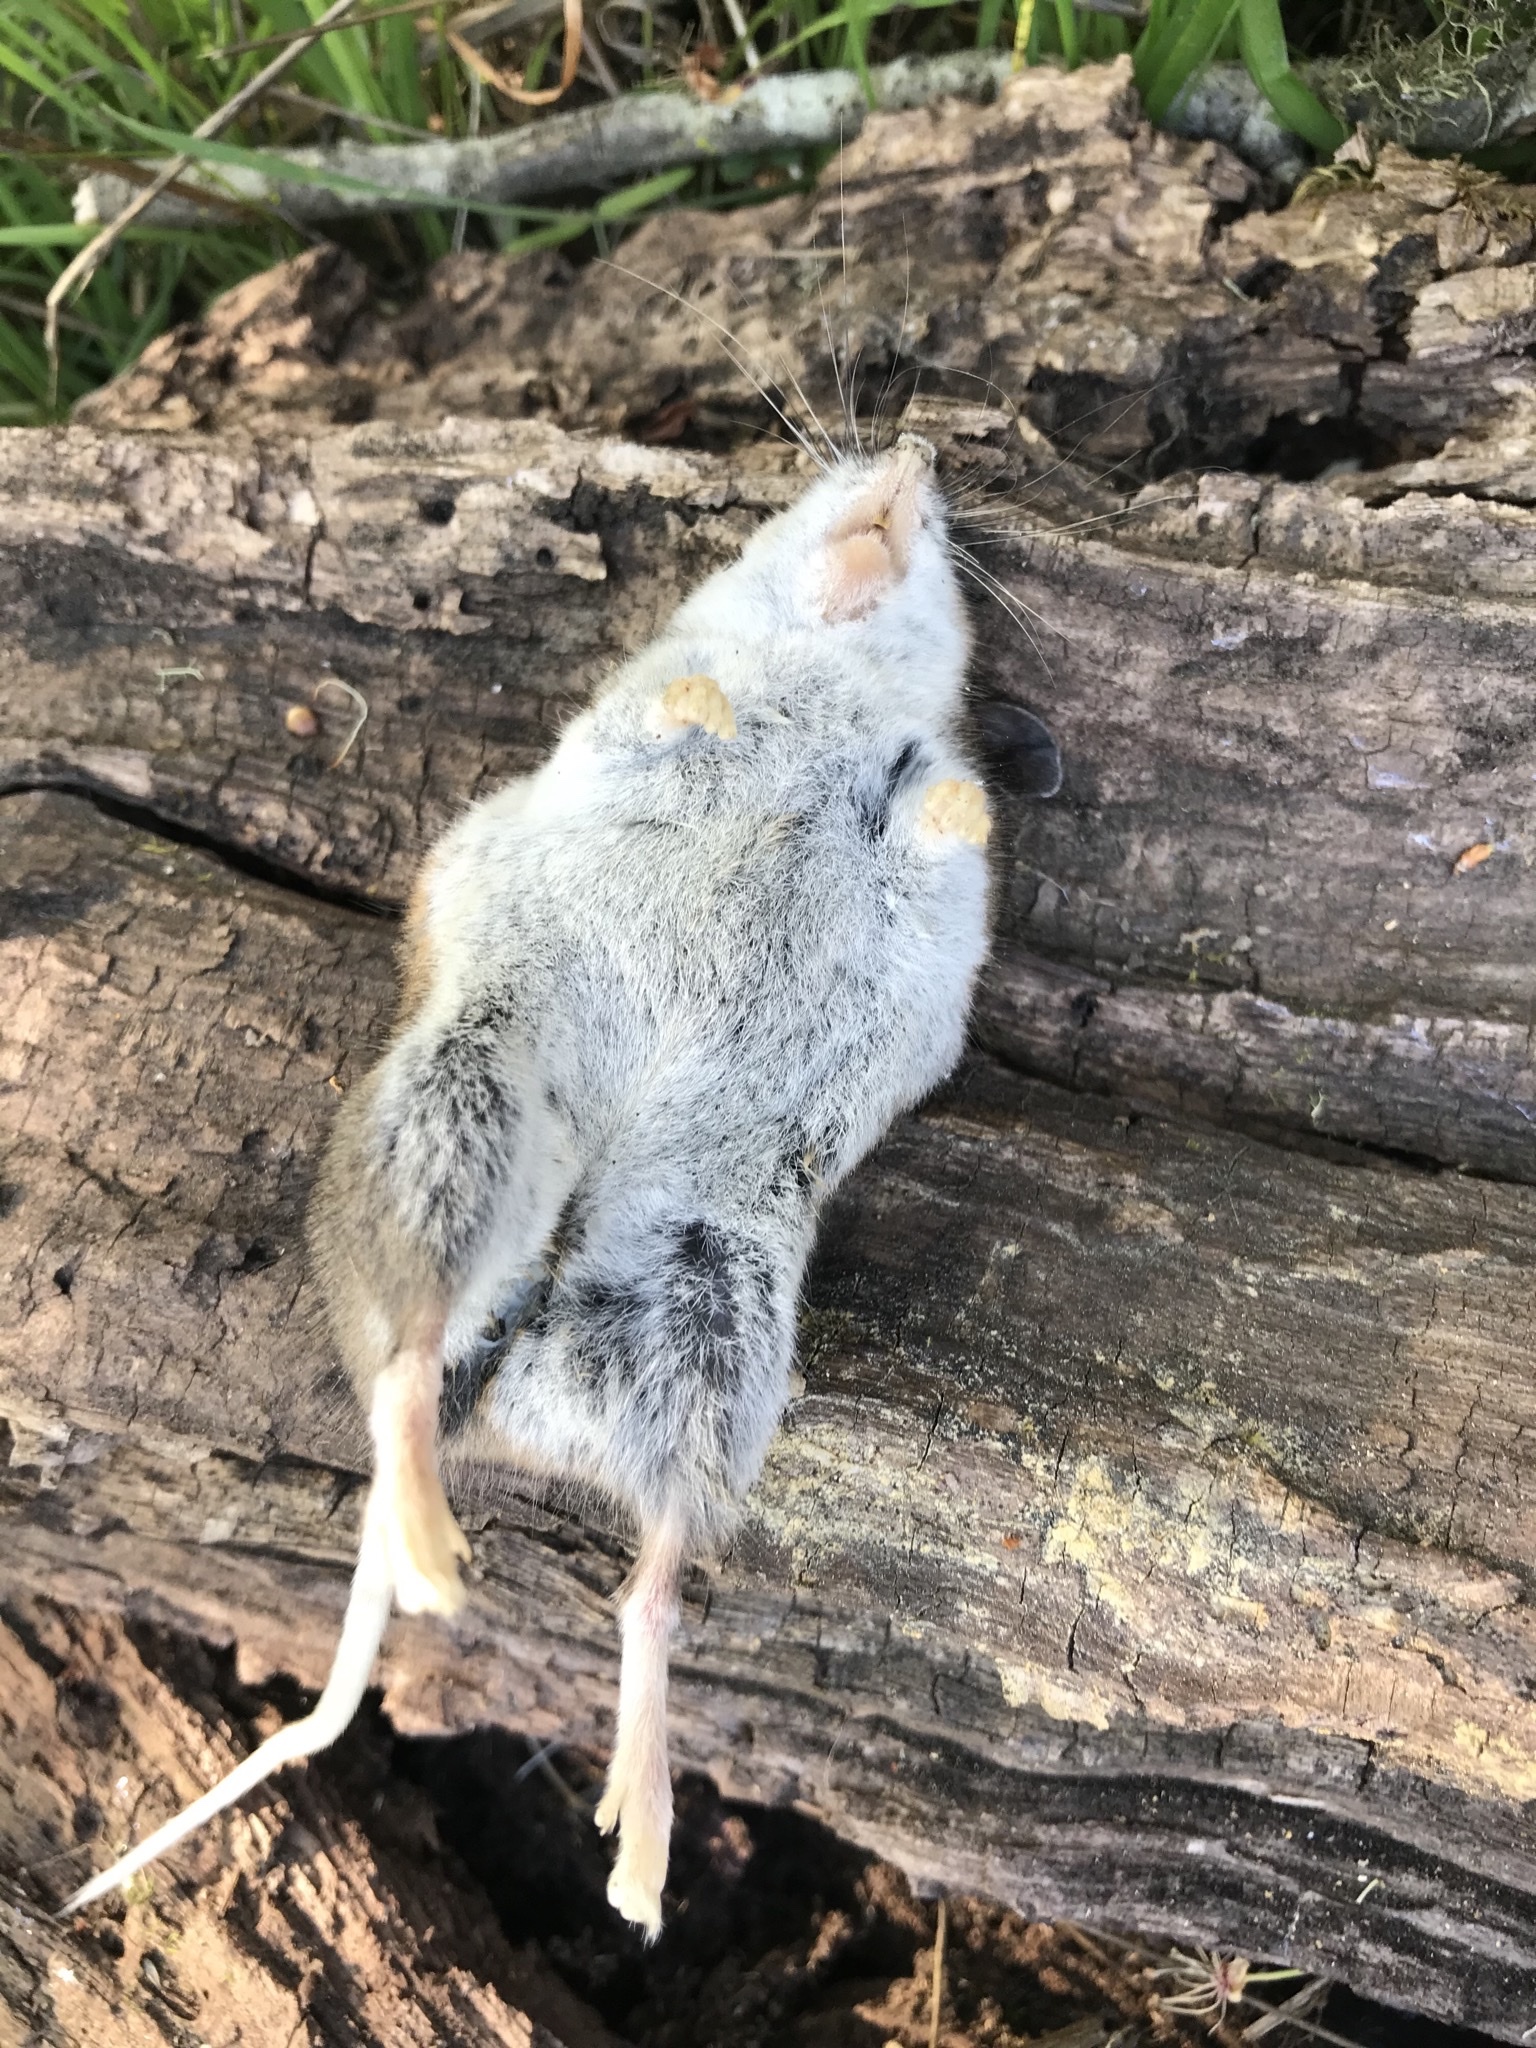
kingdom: Animalia
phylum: Chordata
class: Mammalia
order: Rodentia
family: Cricetidae
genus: Peromyscus
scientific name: Peromyscus maniculatus
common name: Deer mouse
